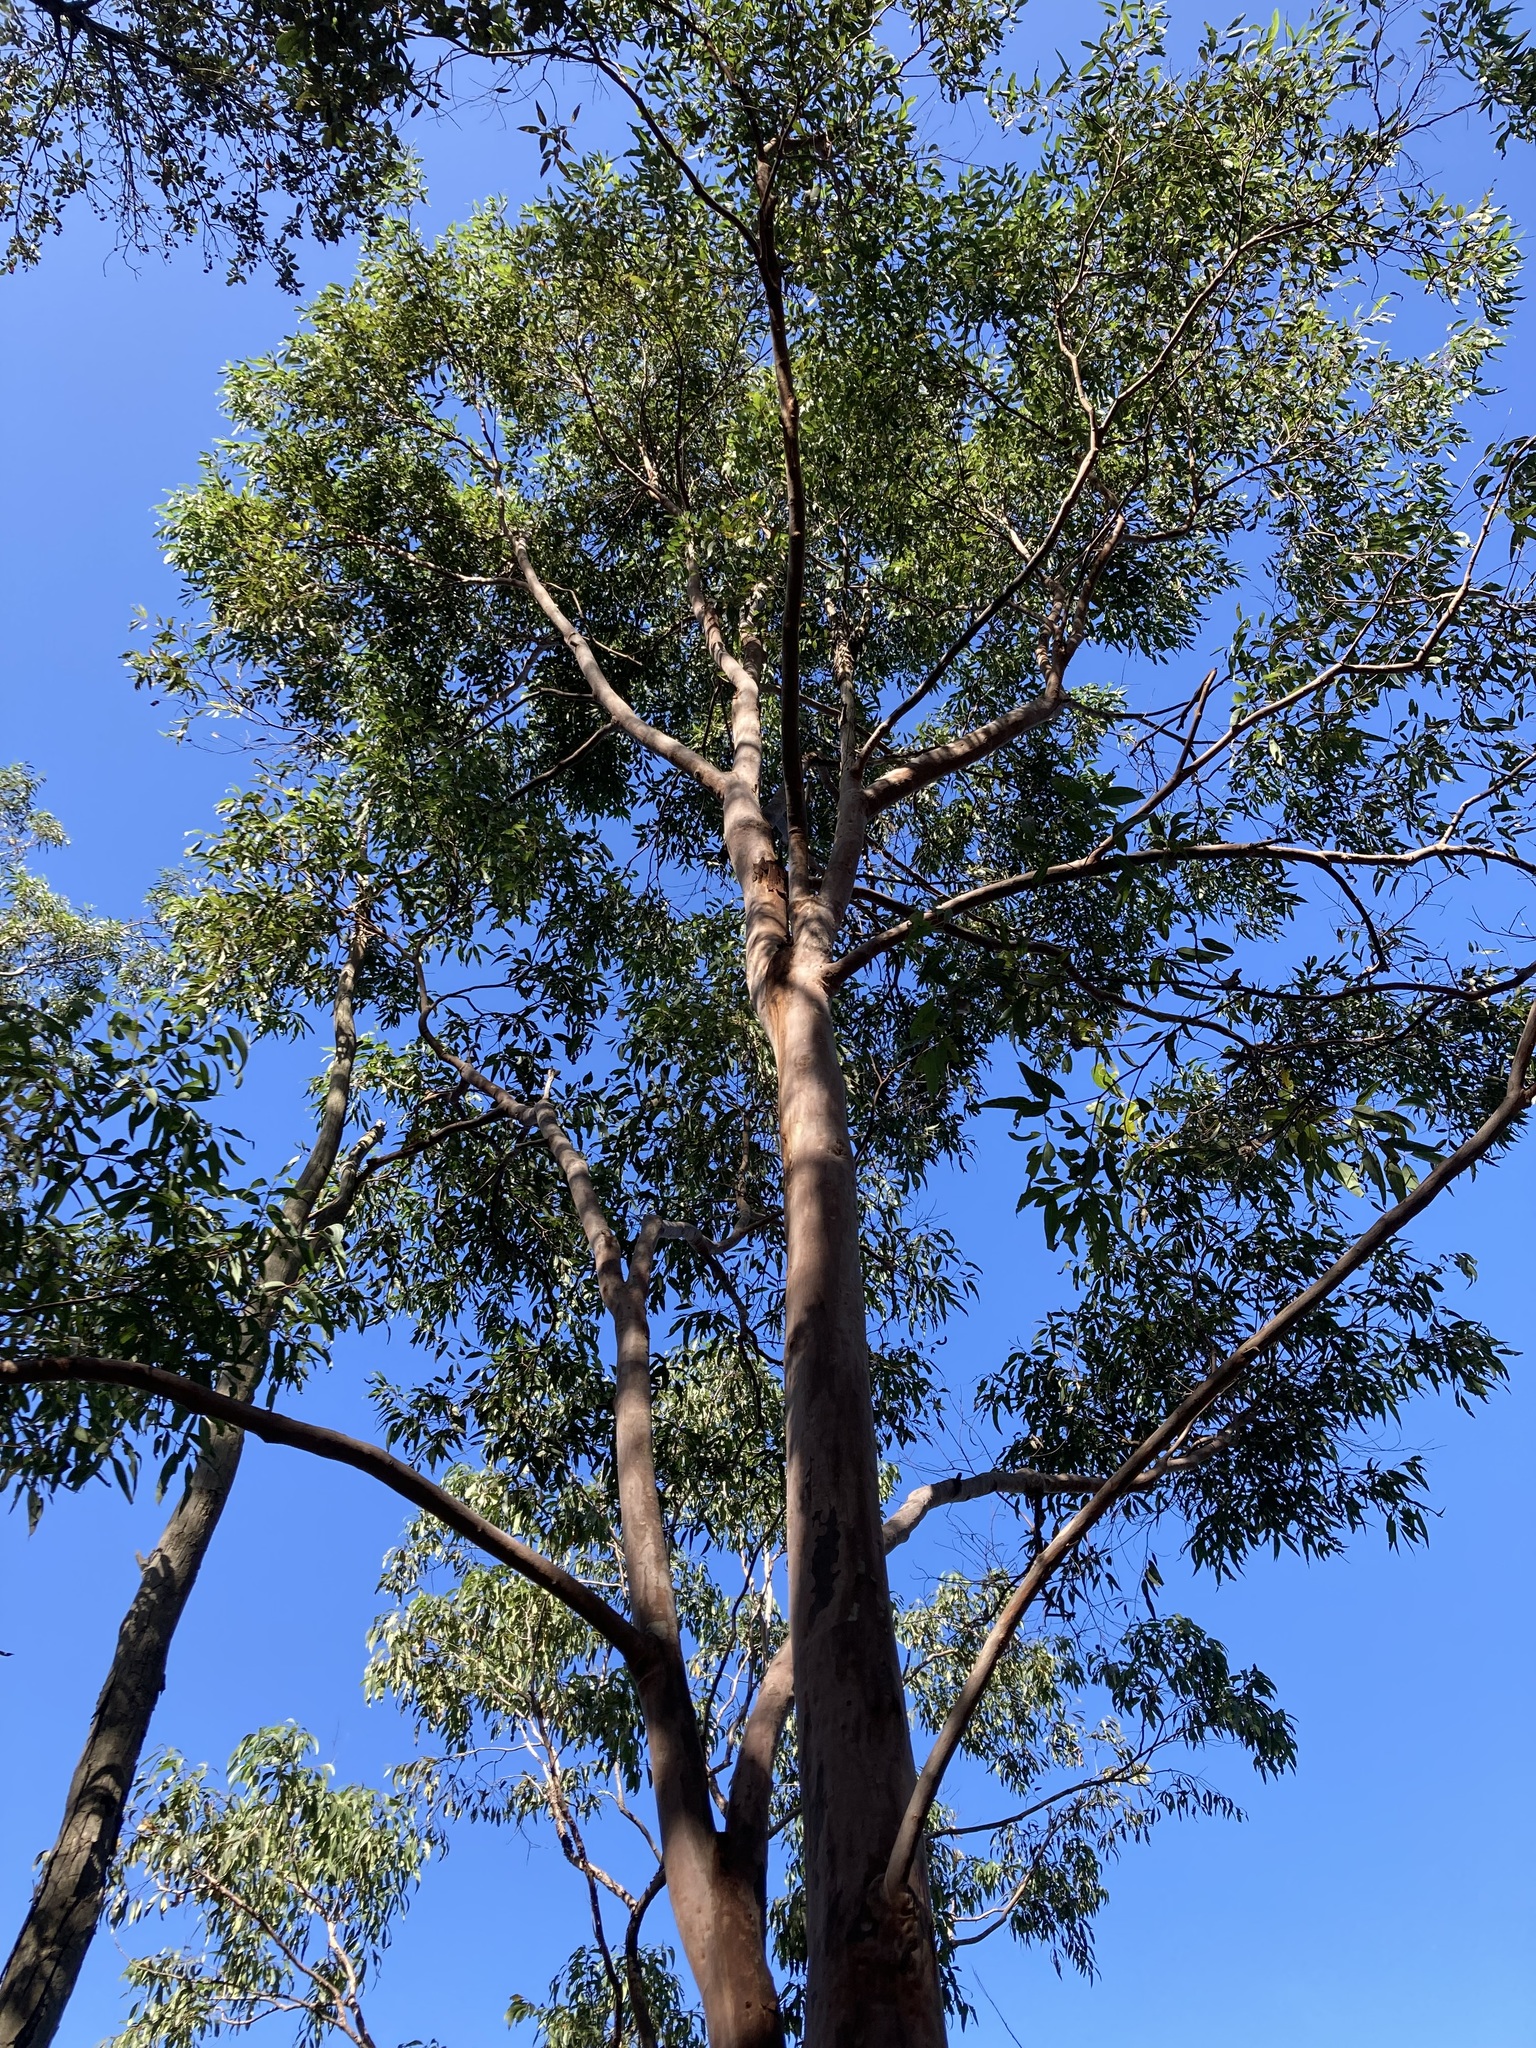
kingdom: Plantae
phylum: Tracheophyta
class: Magnoliopsida
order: Myrtales
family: Myrtaceae
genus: Angophora
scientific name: Angophora costata
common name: Gum myrtle
